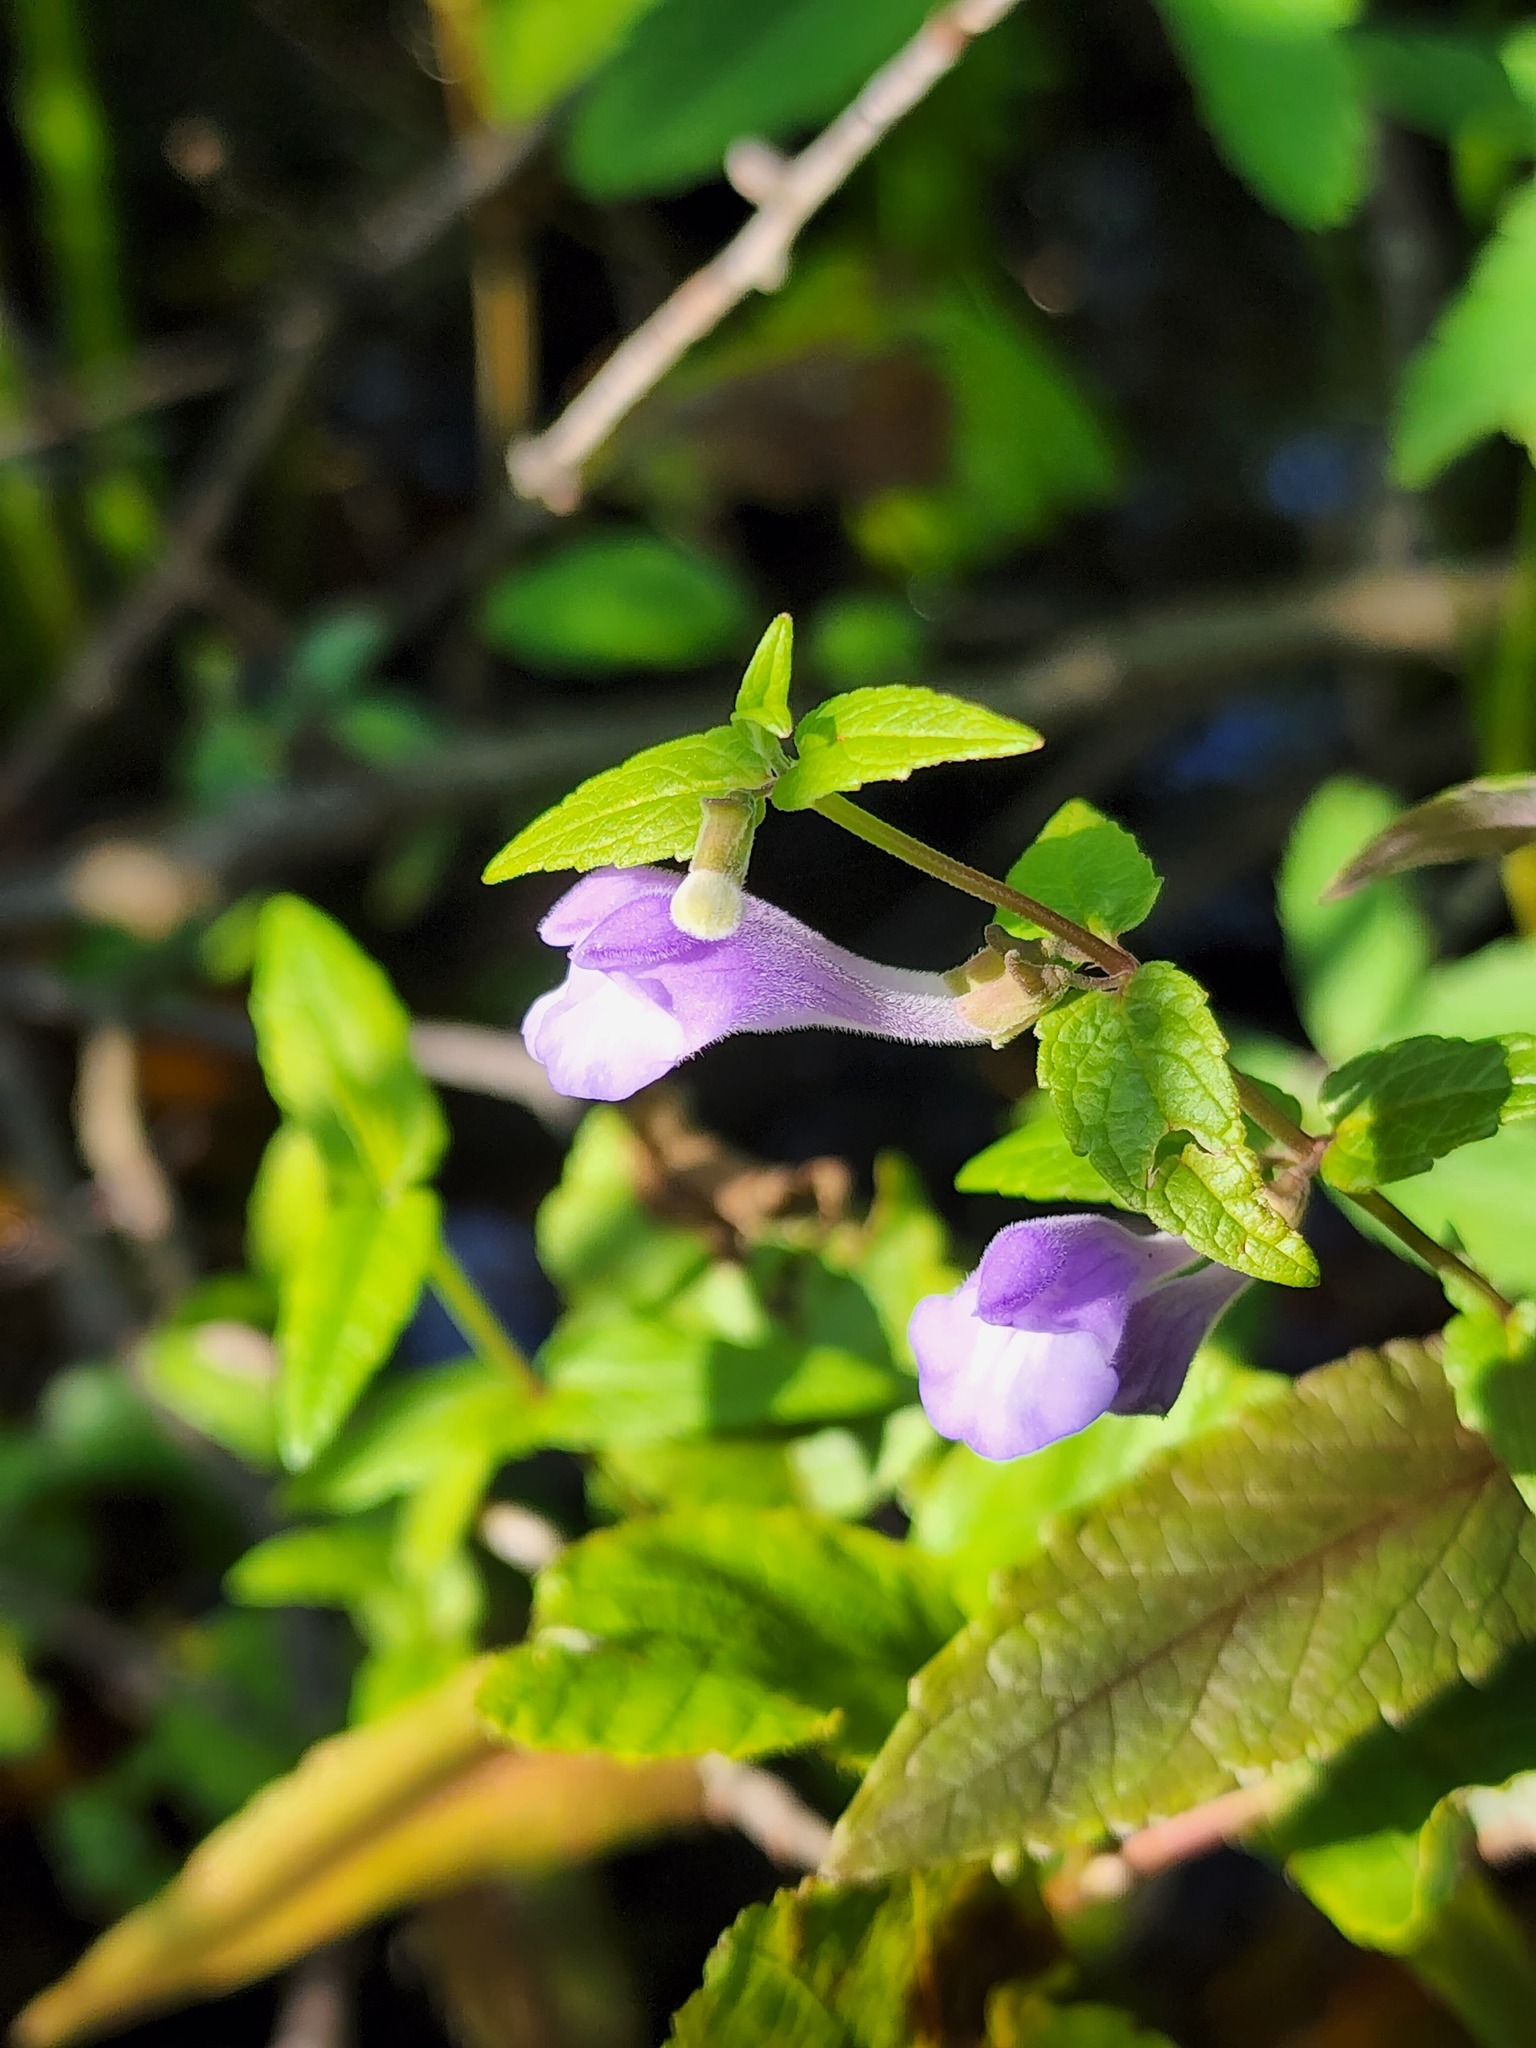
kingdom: Plantae
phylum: Tracheophyta
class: Magnoliopsida
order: Lamiales
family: Lamiaceae
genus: Scutellaria
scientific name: Scutellaria galericulata
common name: Skullcap
